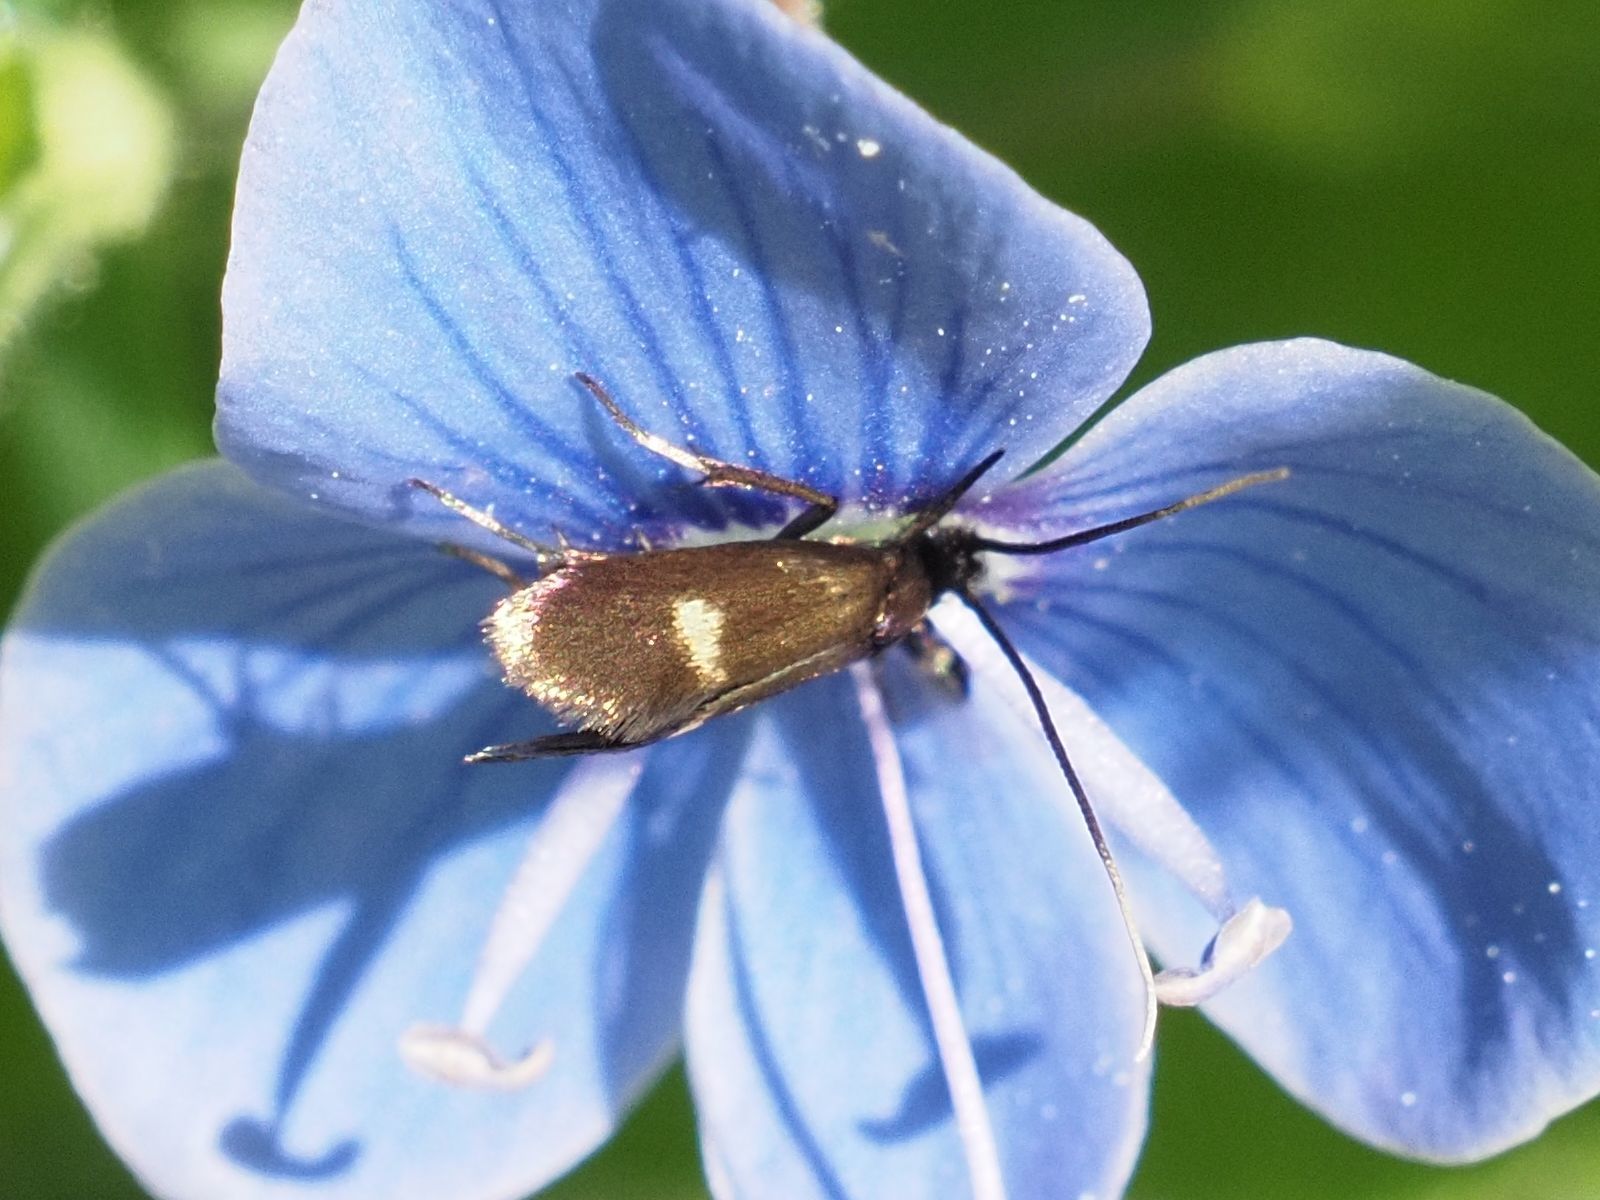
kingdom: Animalia
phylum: Arthropoda
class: Insecta
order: Lepidoptera
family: Adelidae
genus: Cauchas
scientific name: Cauchas fibulella
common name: Little long-horn
